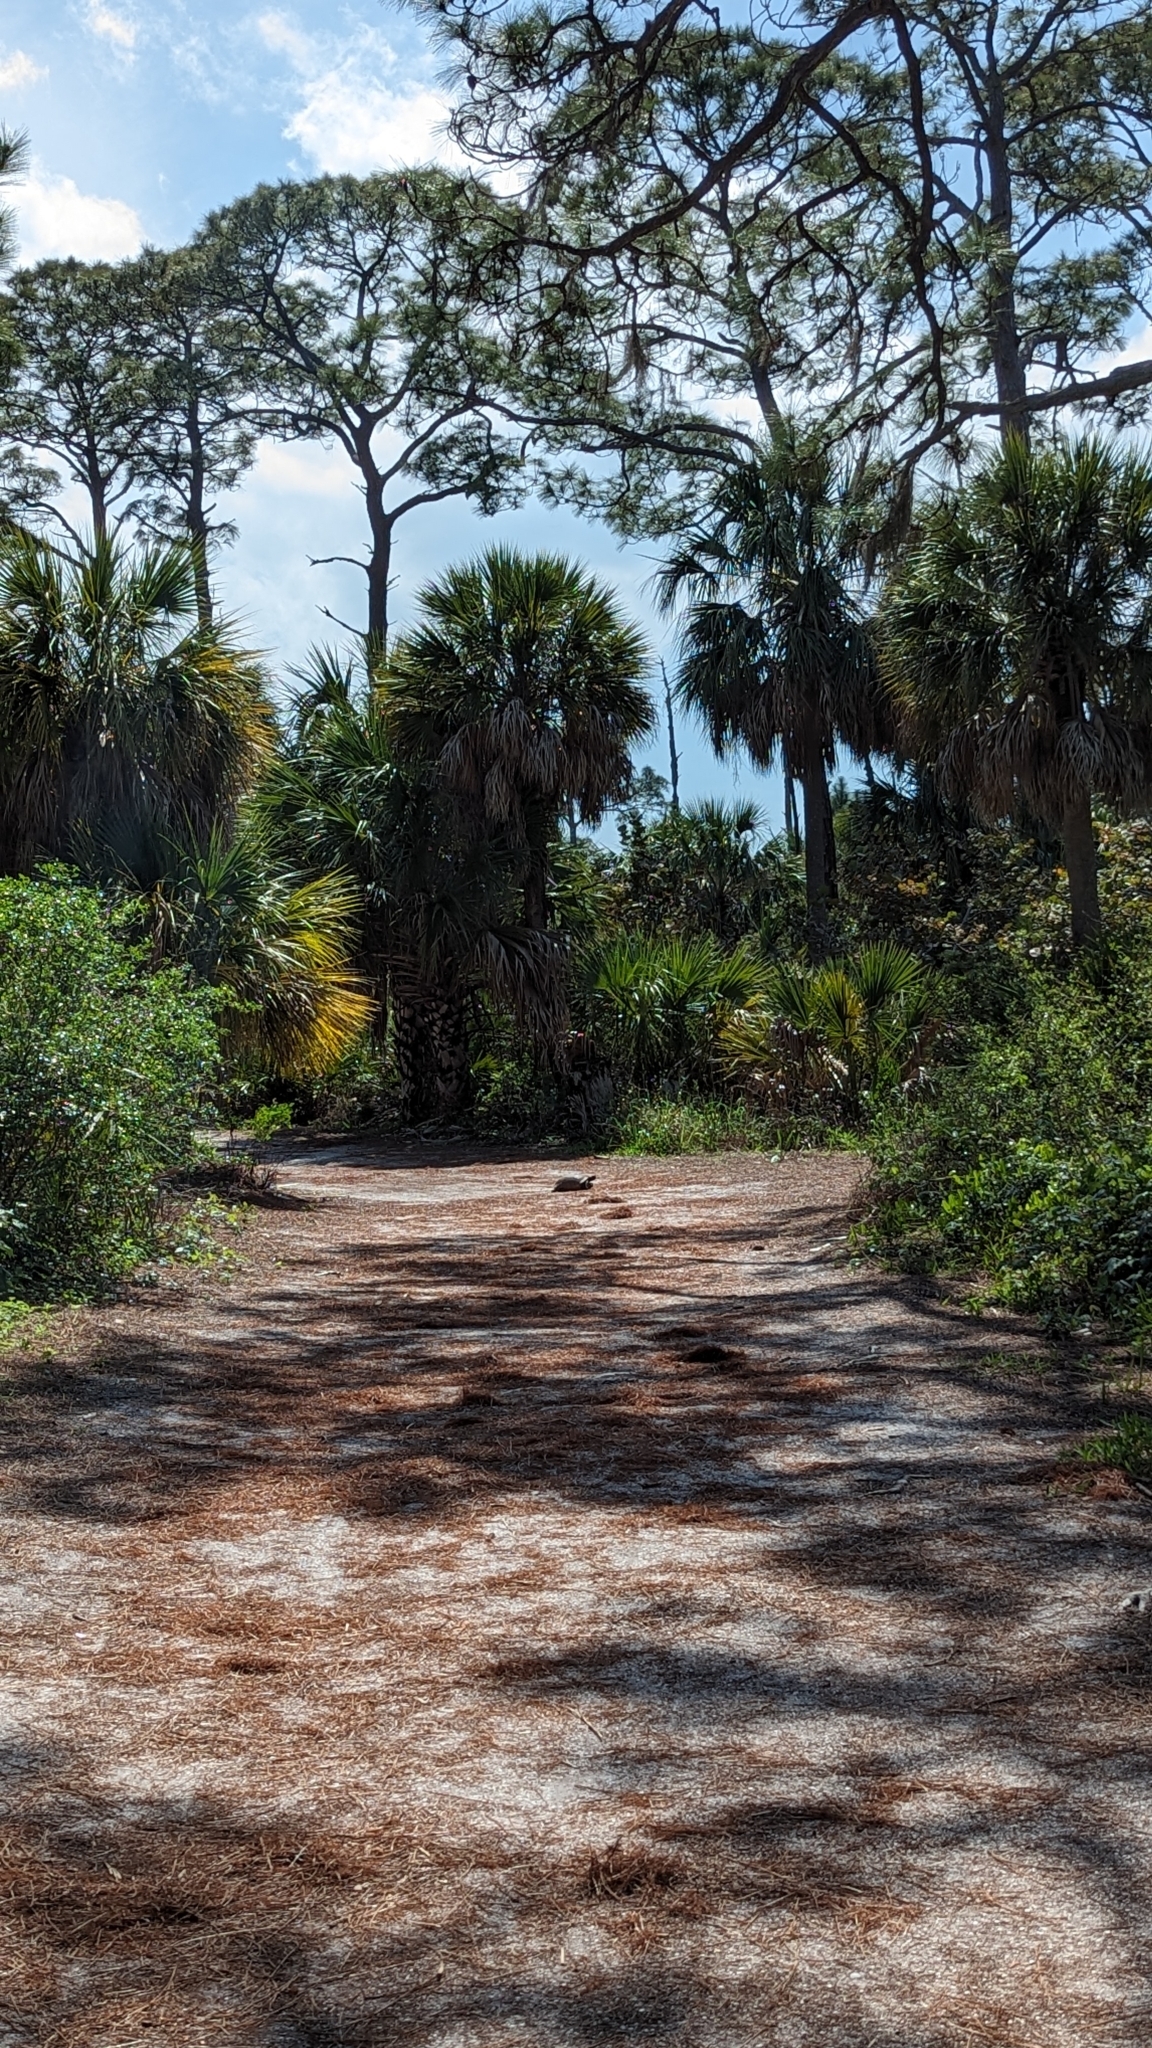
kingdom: Animalia
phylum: Chordata
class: Testudines
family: Testudinidae
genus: Gopherus
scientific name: Gopherus polyphemus
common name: Florida gopher tortoise
